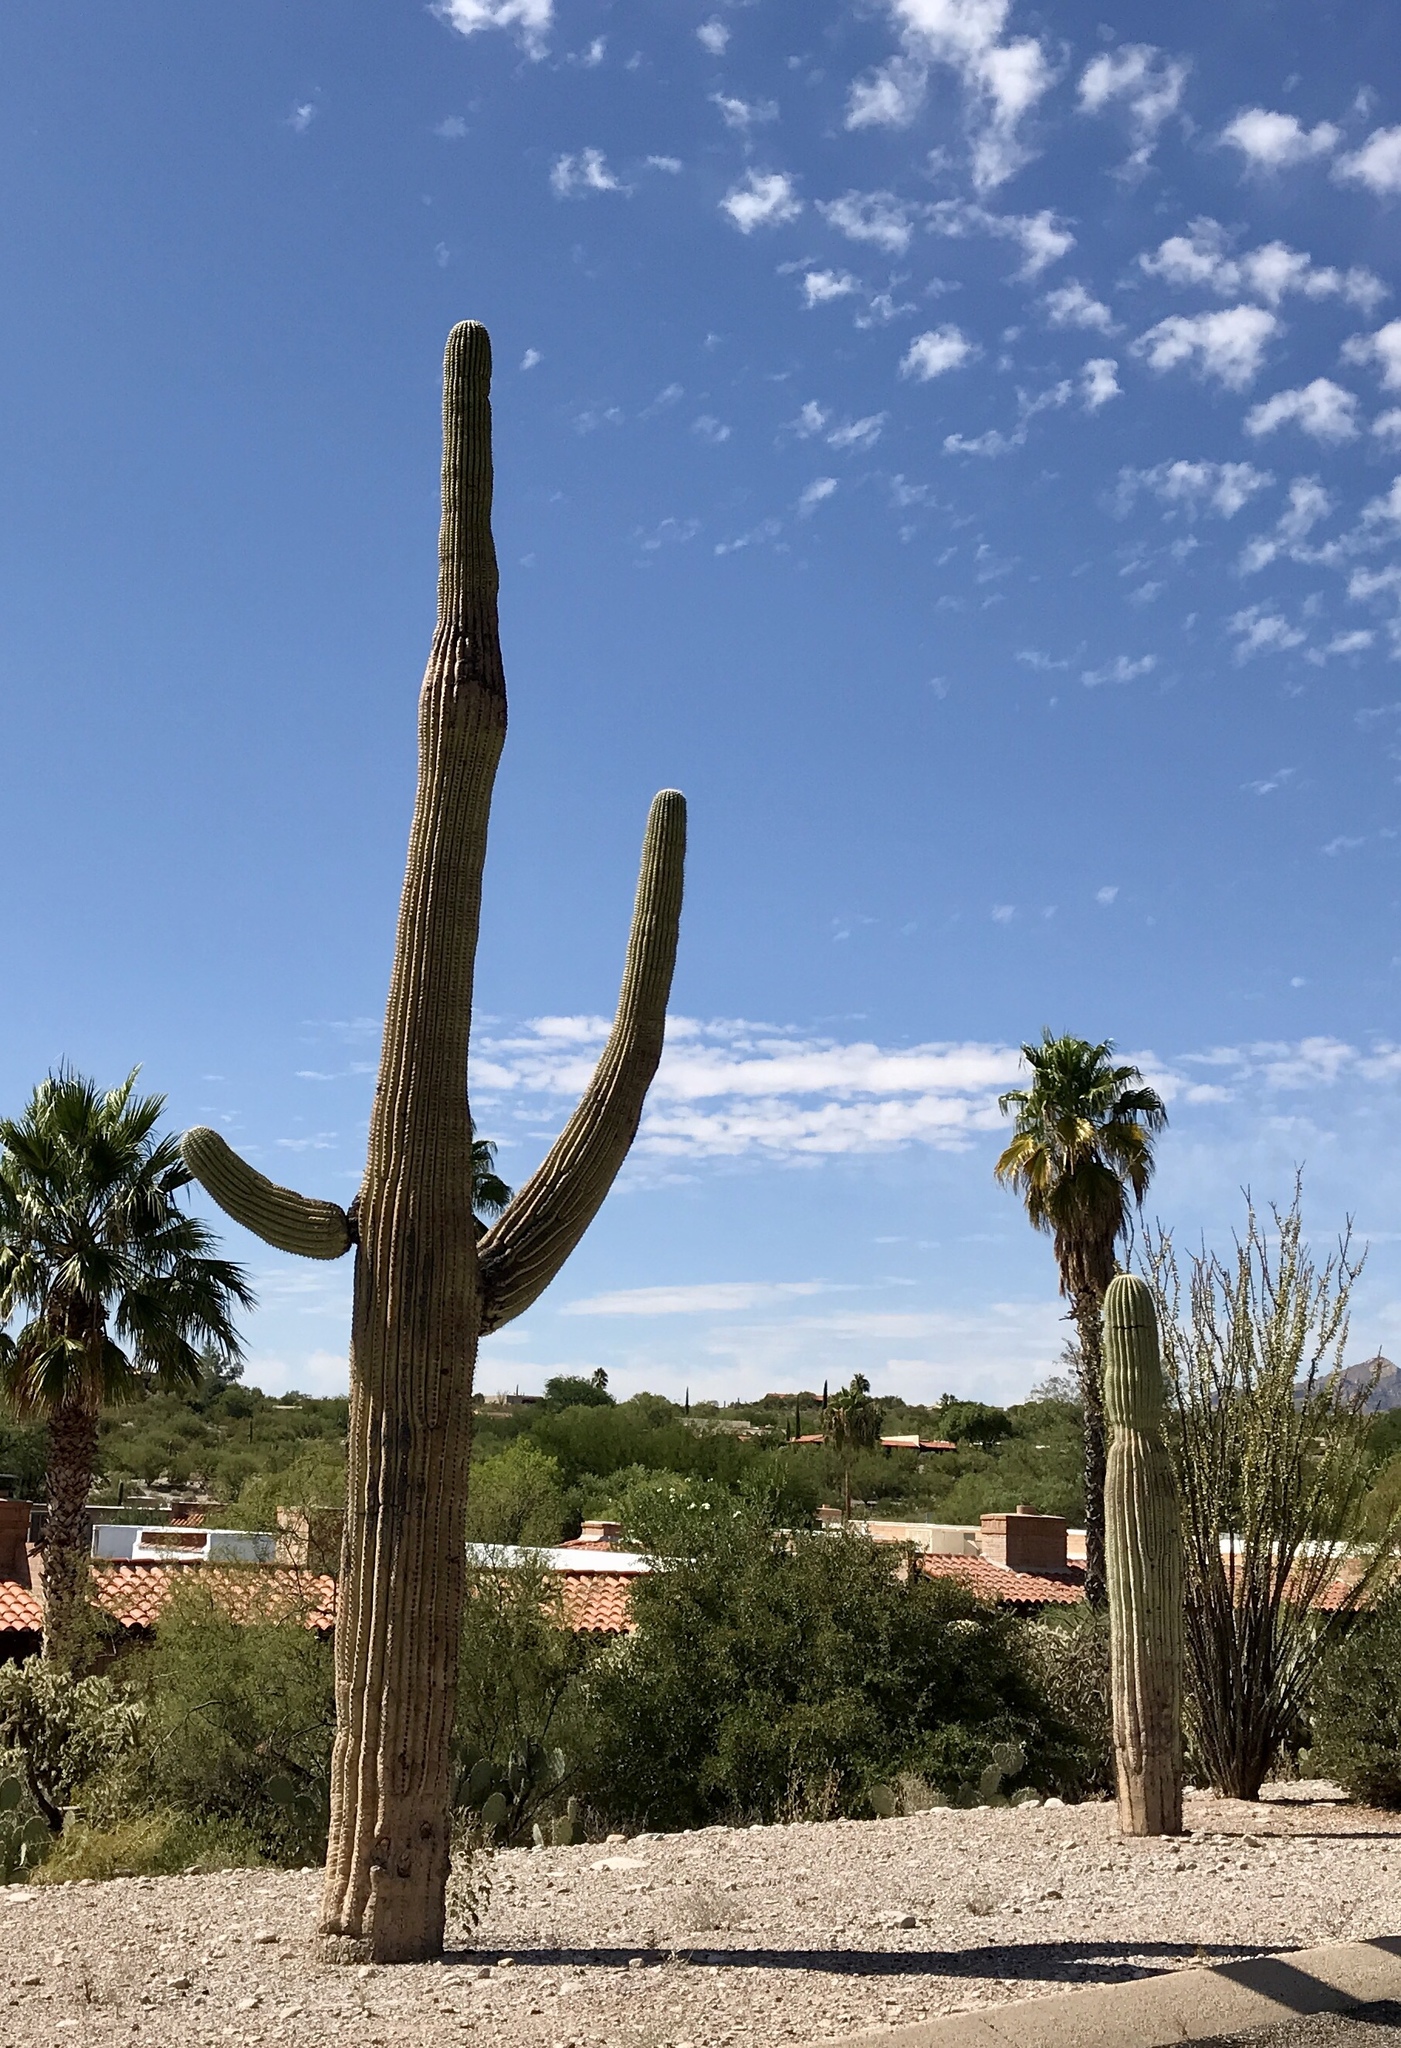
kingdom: Plantae
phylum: Tracheophyta
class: Magnoliopsida
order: Caryophyllales
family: Cactaceae
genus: Carnegiea
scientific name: Carnegiea gigantea
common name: Saguaro
